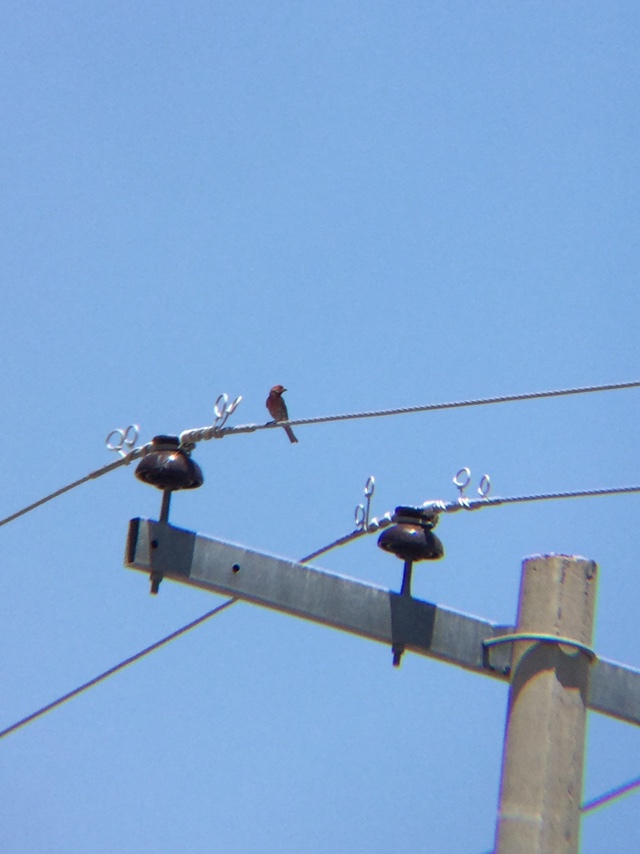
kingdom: Animalia
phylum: Chordata
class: Aves
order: Passeriformes
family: Fringillidae
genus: Haemorhous
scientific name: Haemorhous mexicanus
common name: House finch
